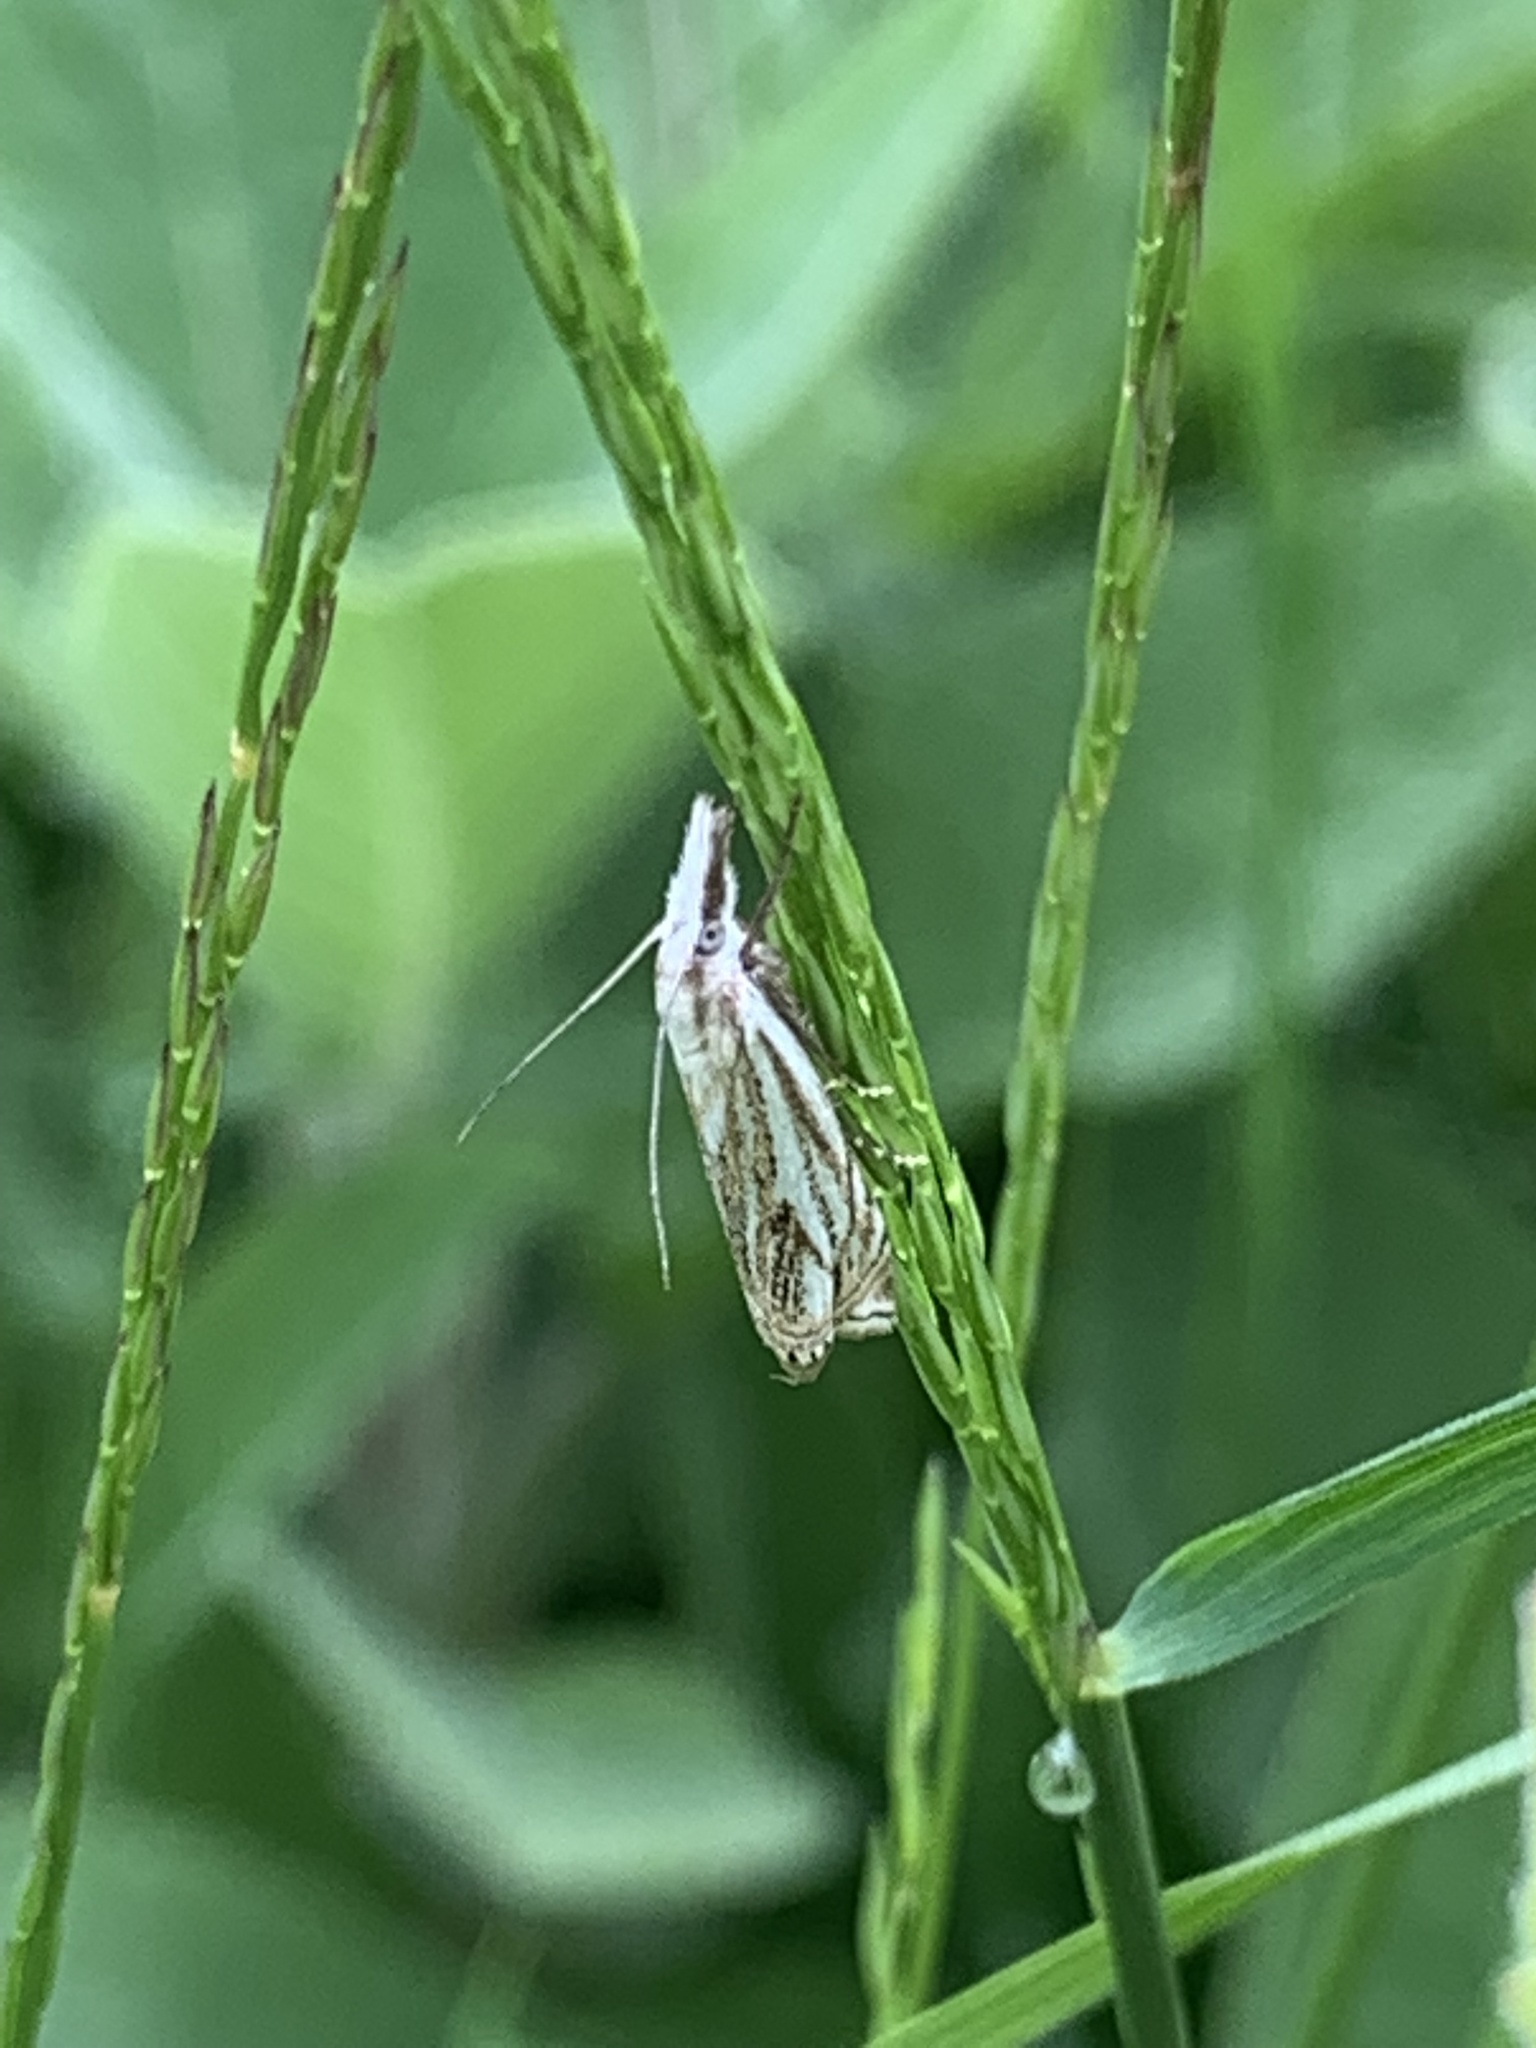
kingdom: Animalia
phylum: Arthropoda
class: Insecta
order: Lepidoptera
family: Crambidae
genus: Crambus
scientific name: Crambus nemorella
